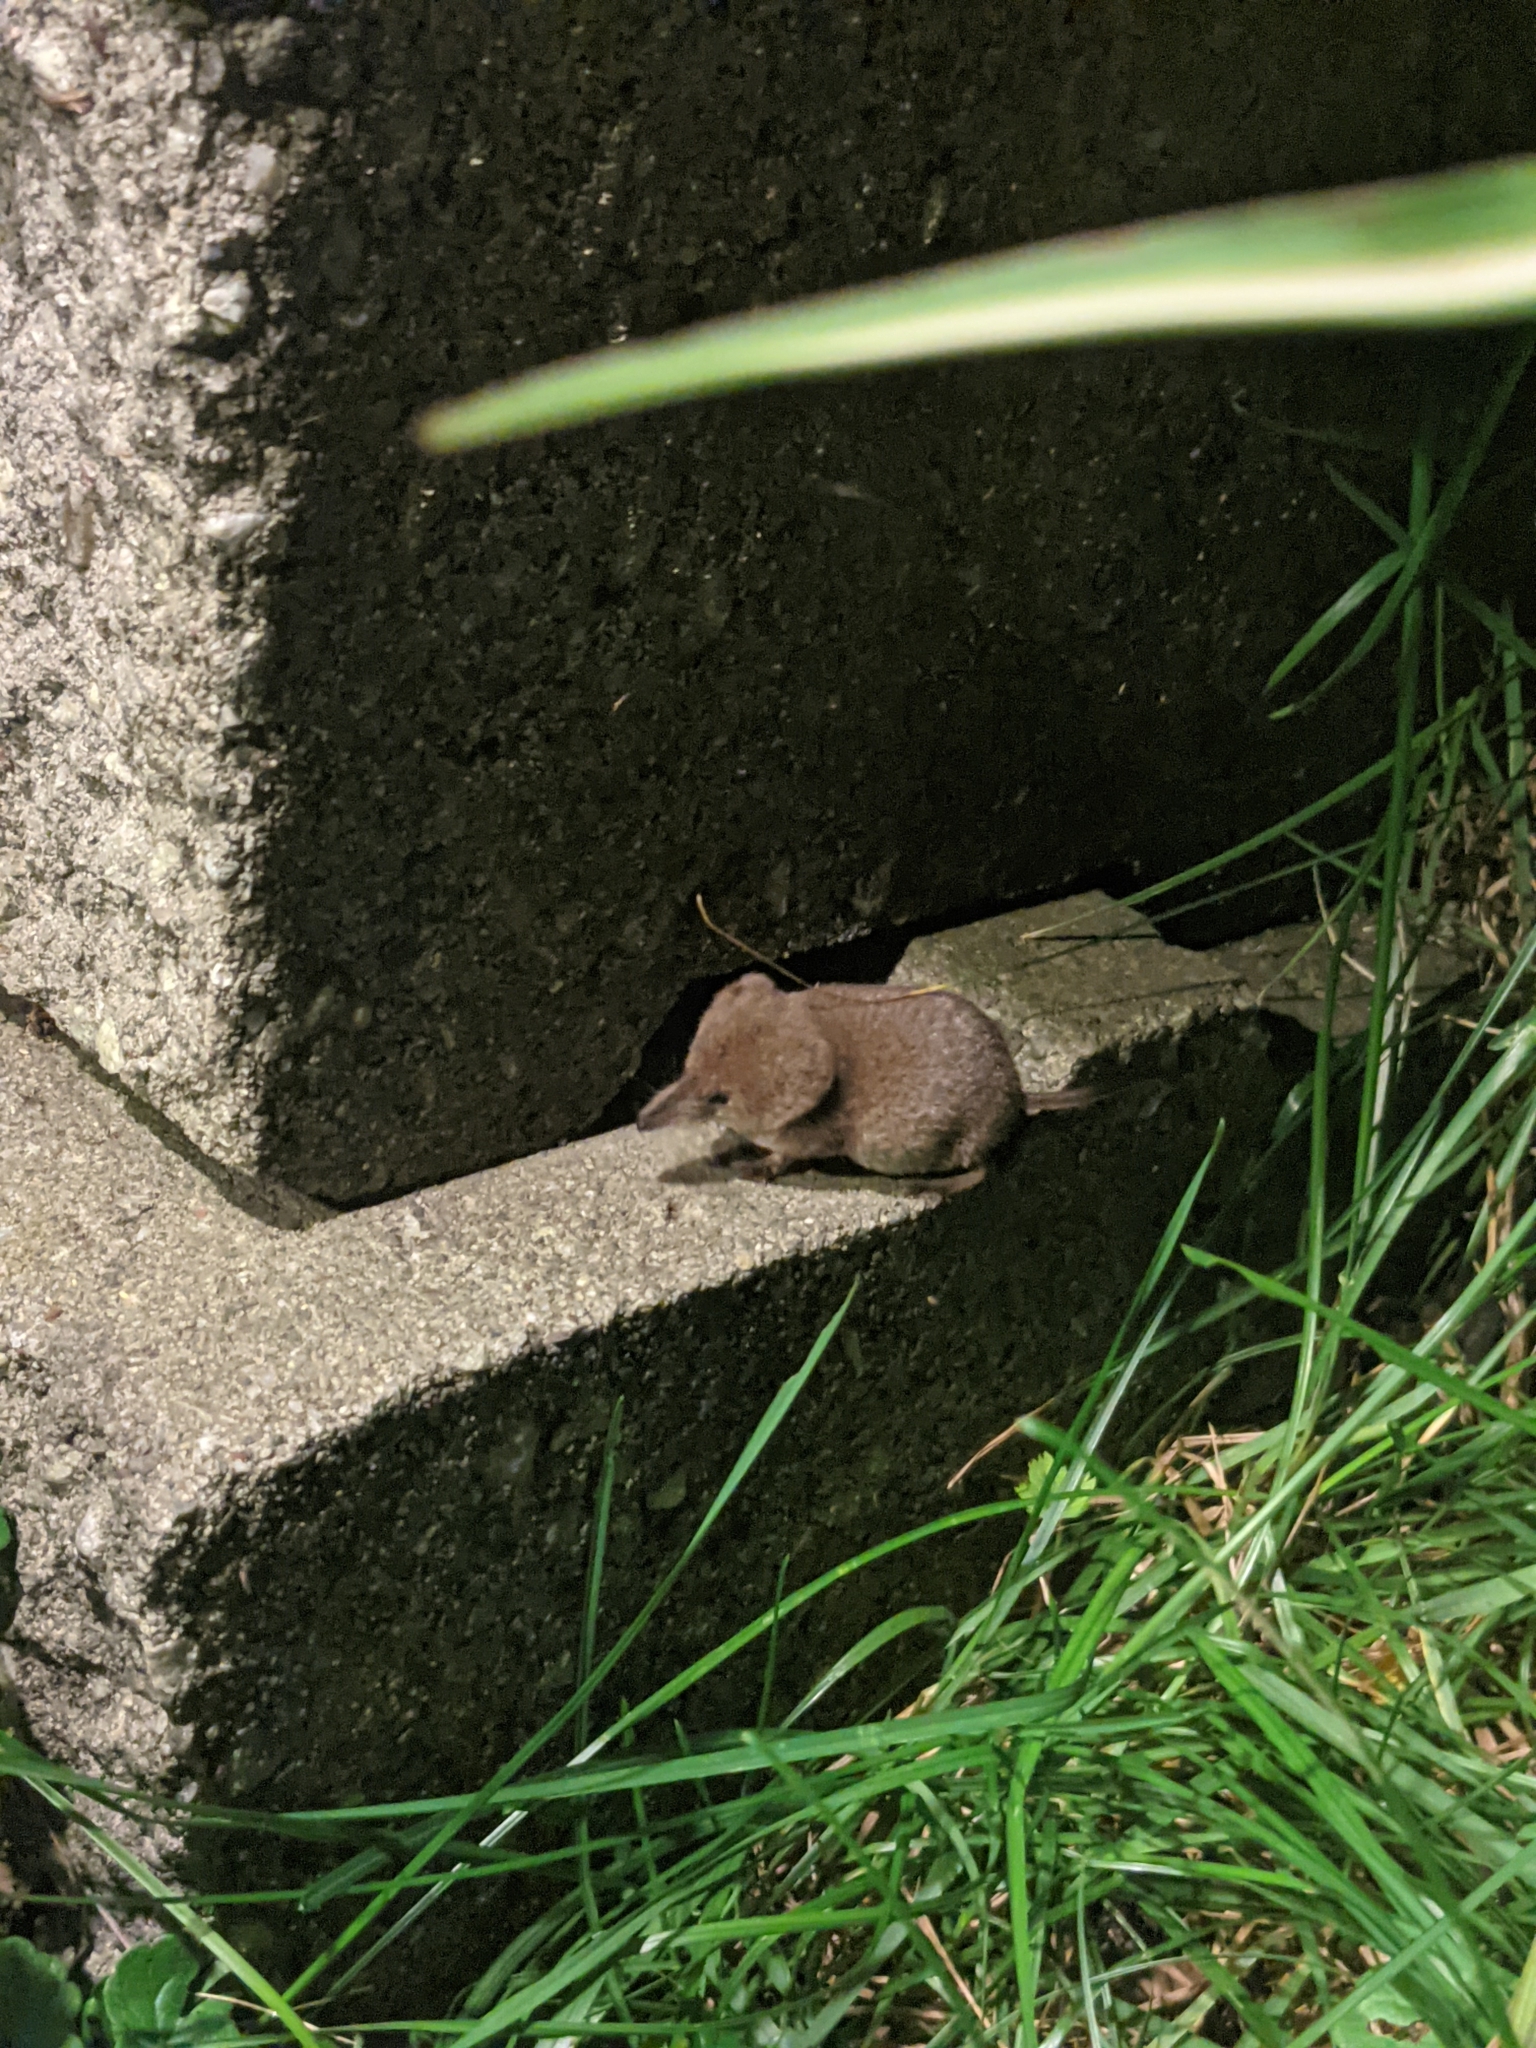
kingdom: Animalia
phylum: Chordata
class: Mammalia
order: Soricomorpha
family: Soricidae
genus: Sorex
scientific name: Sorex cinereus
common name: Cinereus shrew
